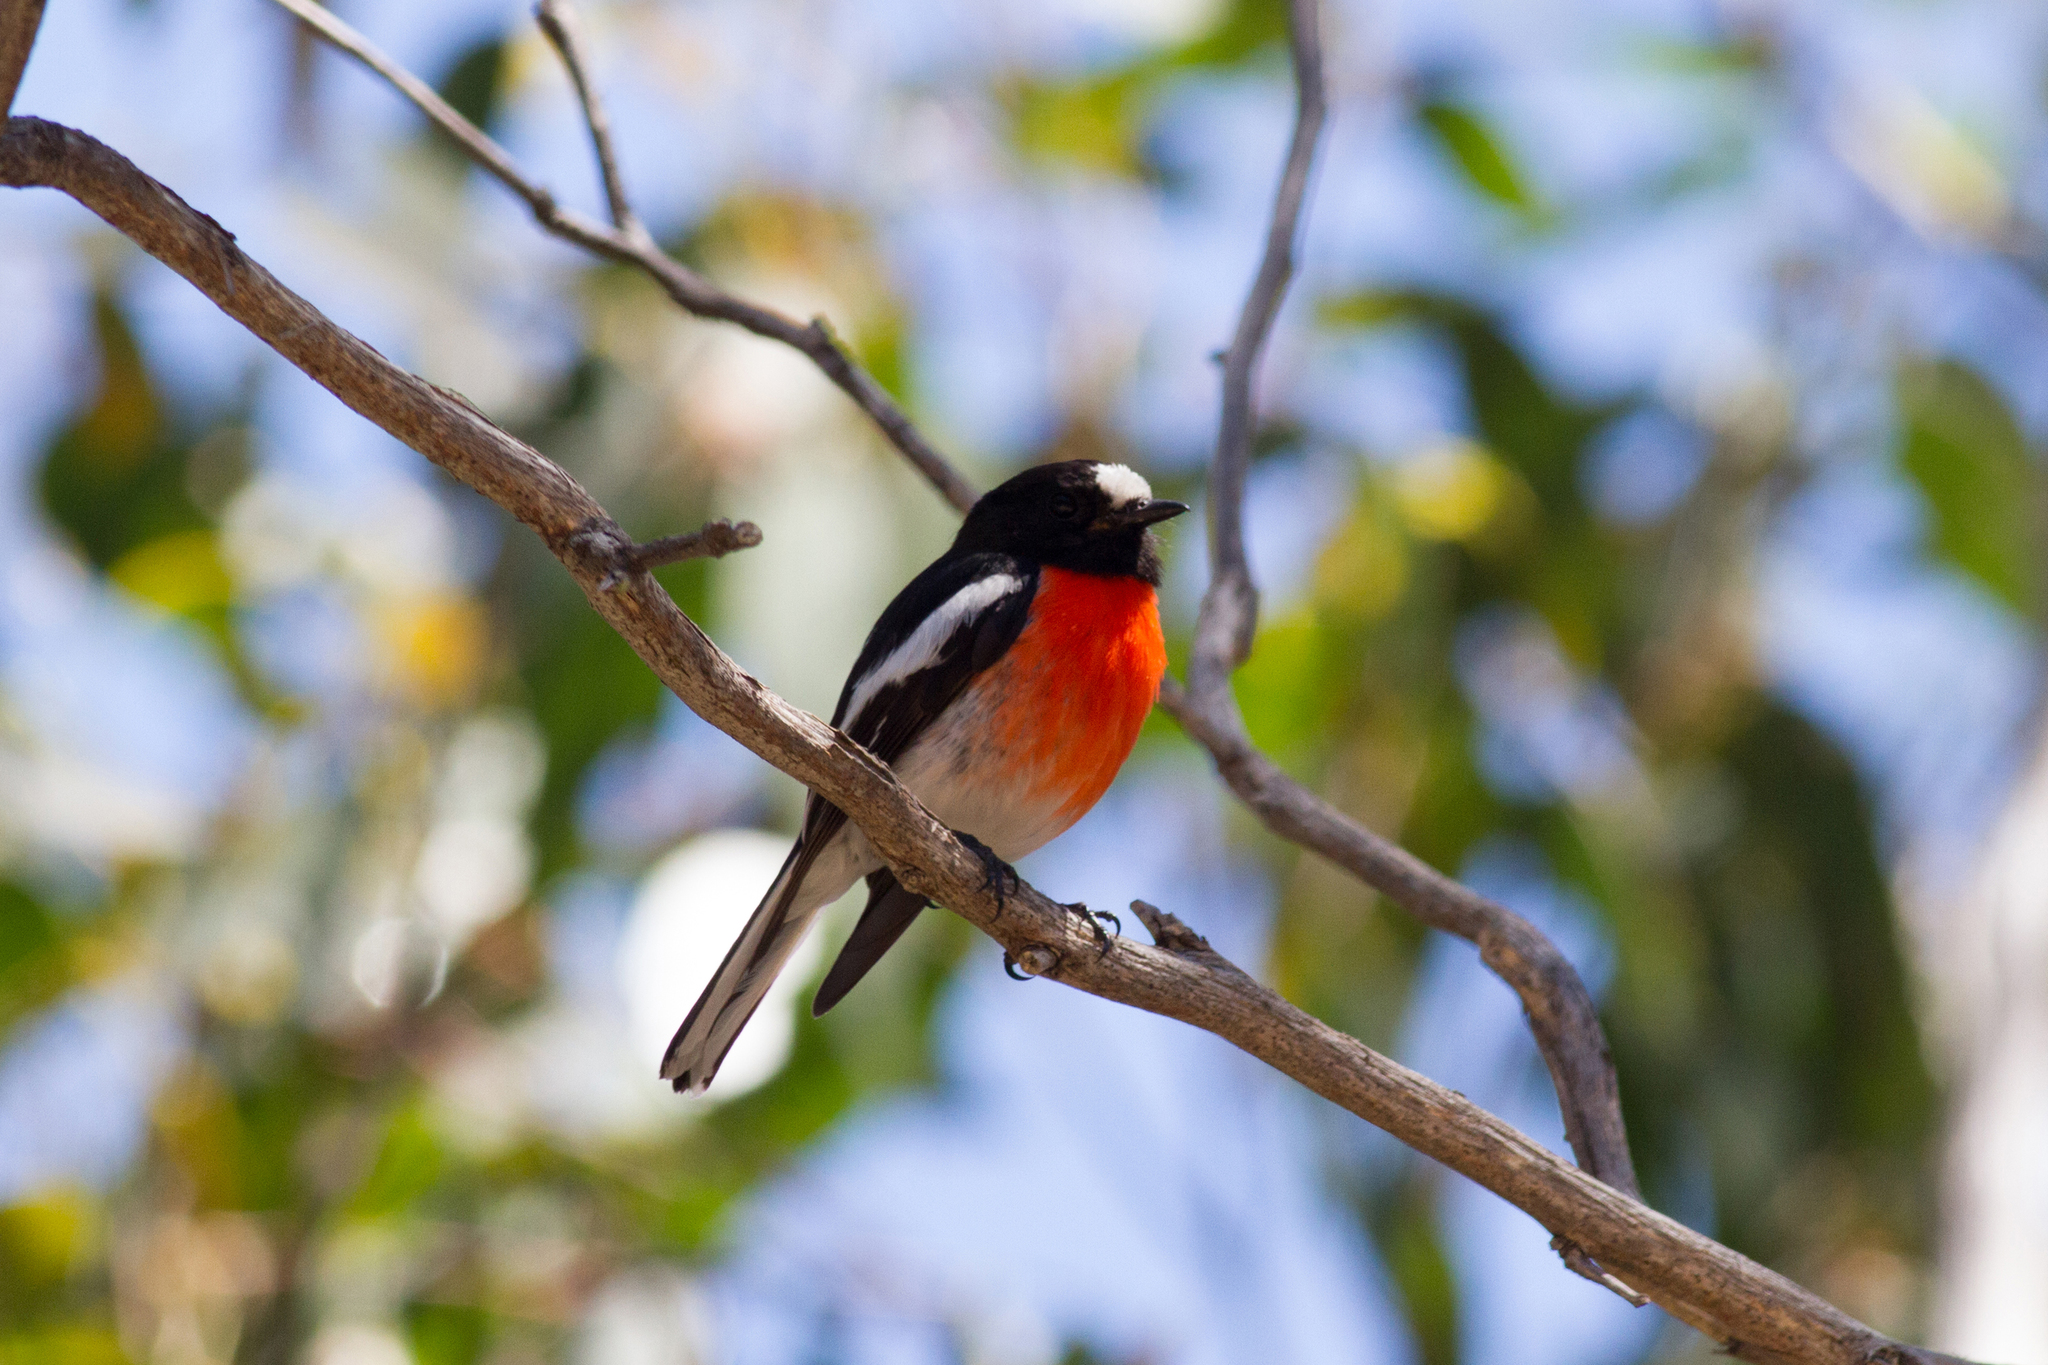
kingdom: Animalia
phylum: Chordata
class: Aves
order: Passeriformes
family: Petroicidae
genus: Petroica
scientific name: Petroica boodang
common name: Scarlet robin
